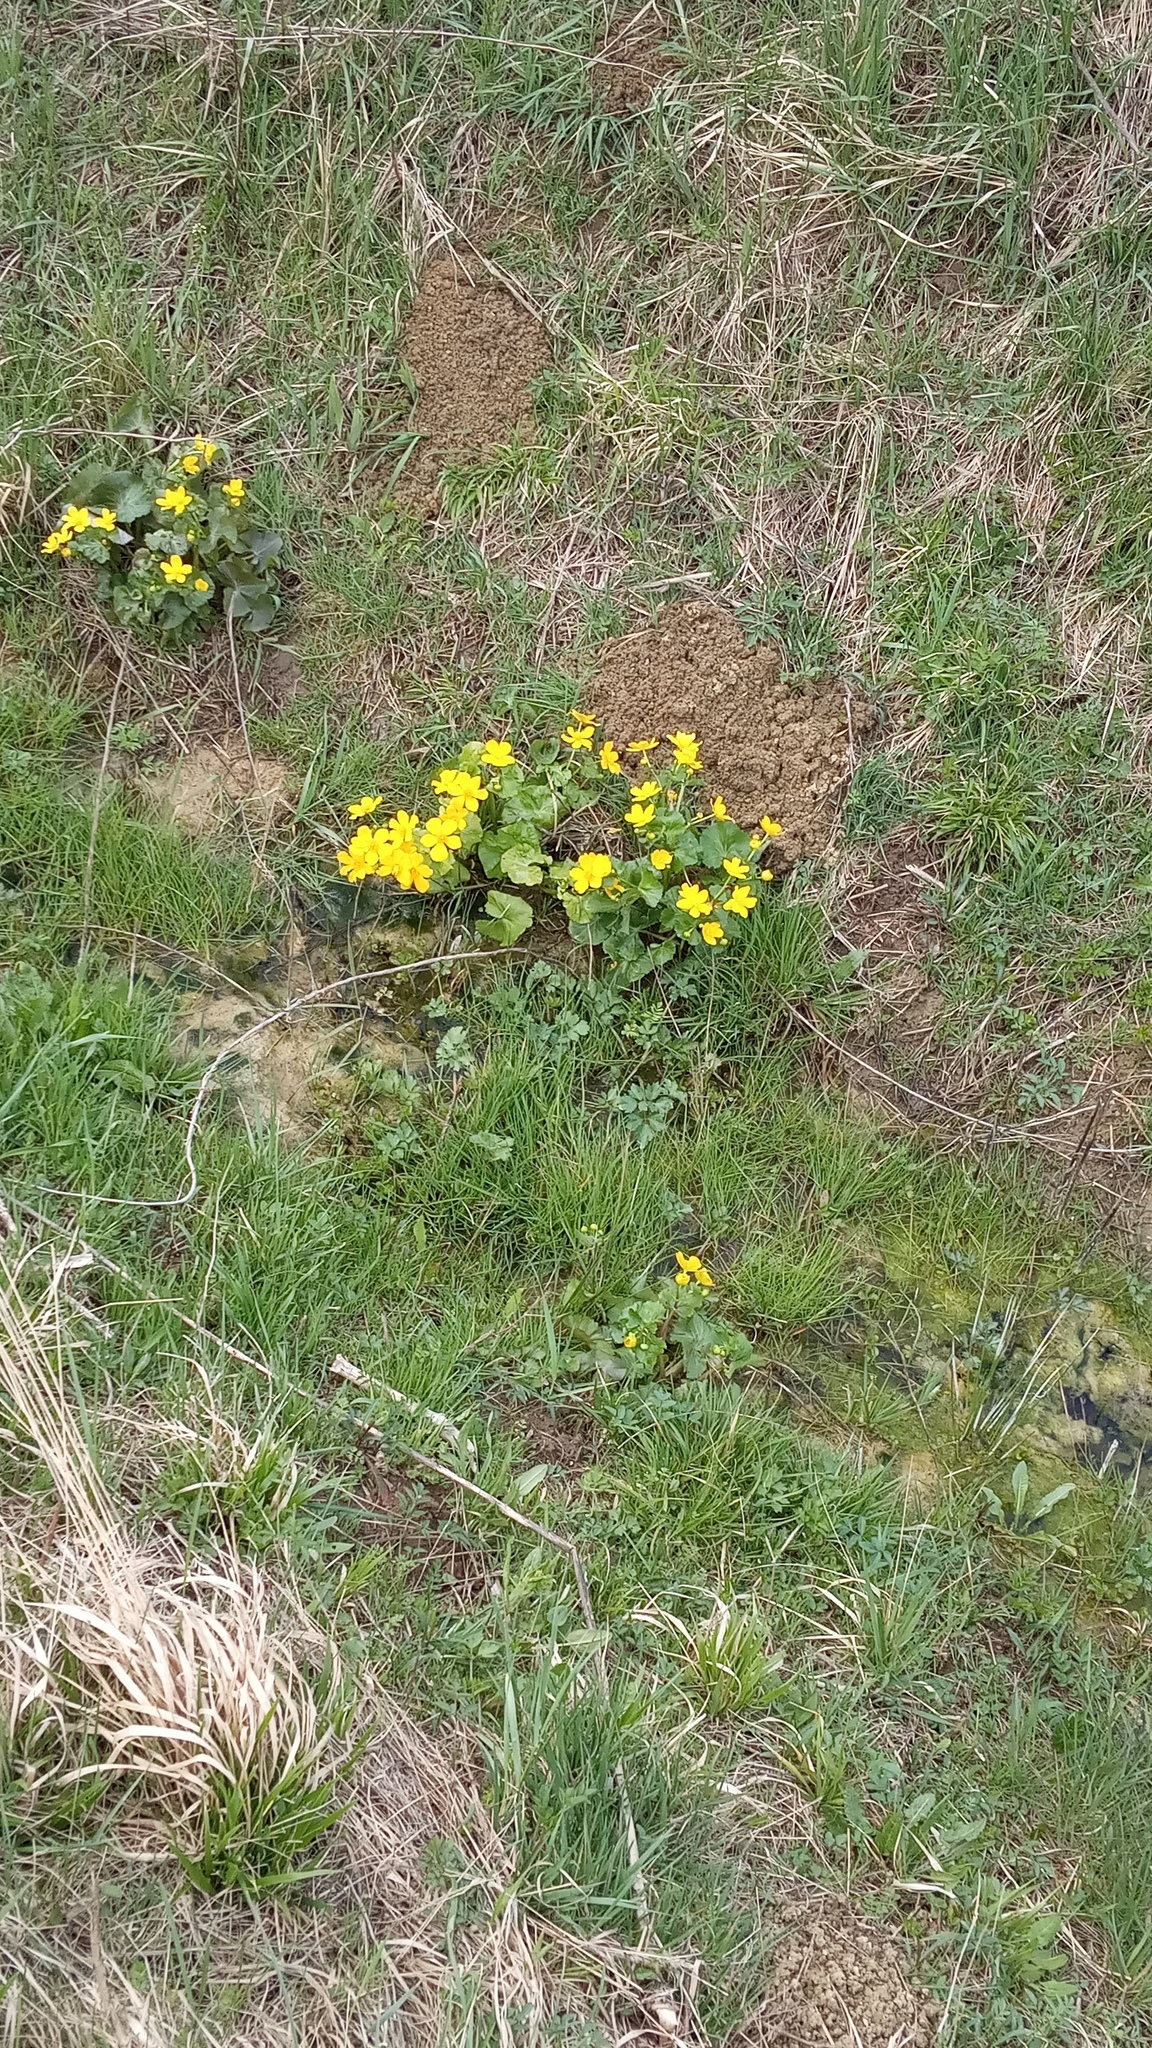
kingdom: Plantae
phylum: Tracheophyta
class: Magnoliopsida
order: Ranunculales
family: Ranunculaceae
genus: Caltha
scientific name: Caltha palustris
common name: Marsh marigold
